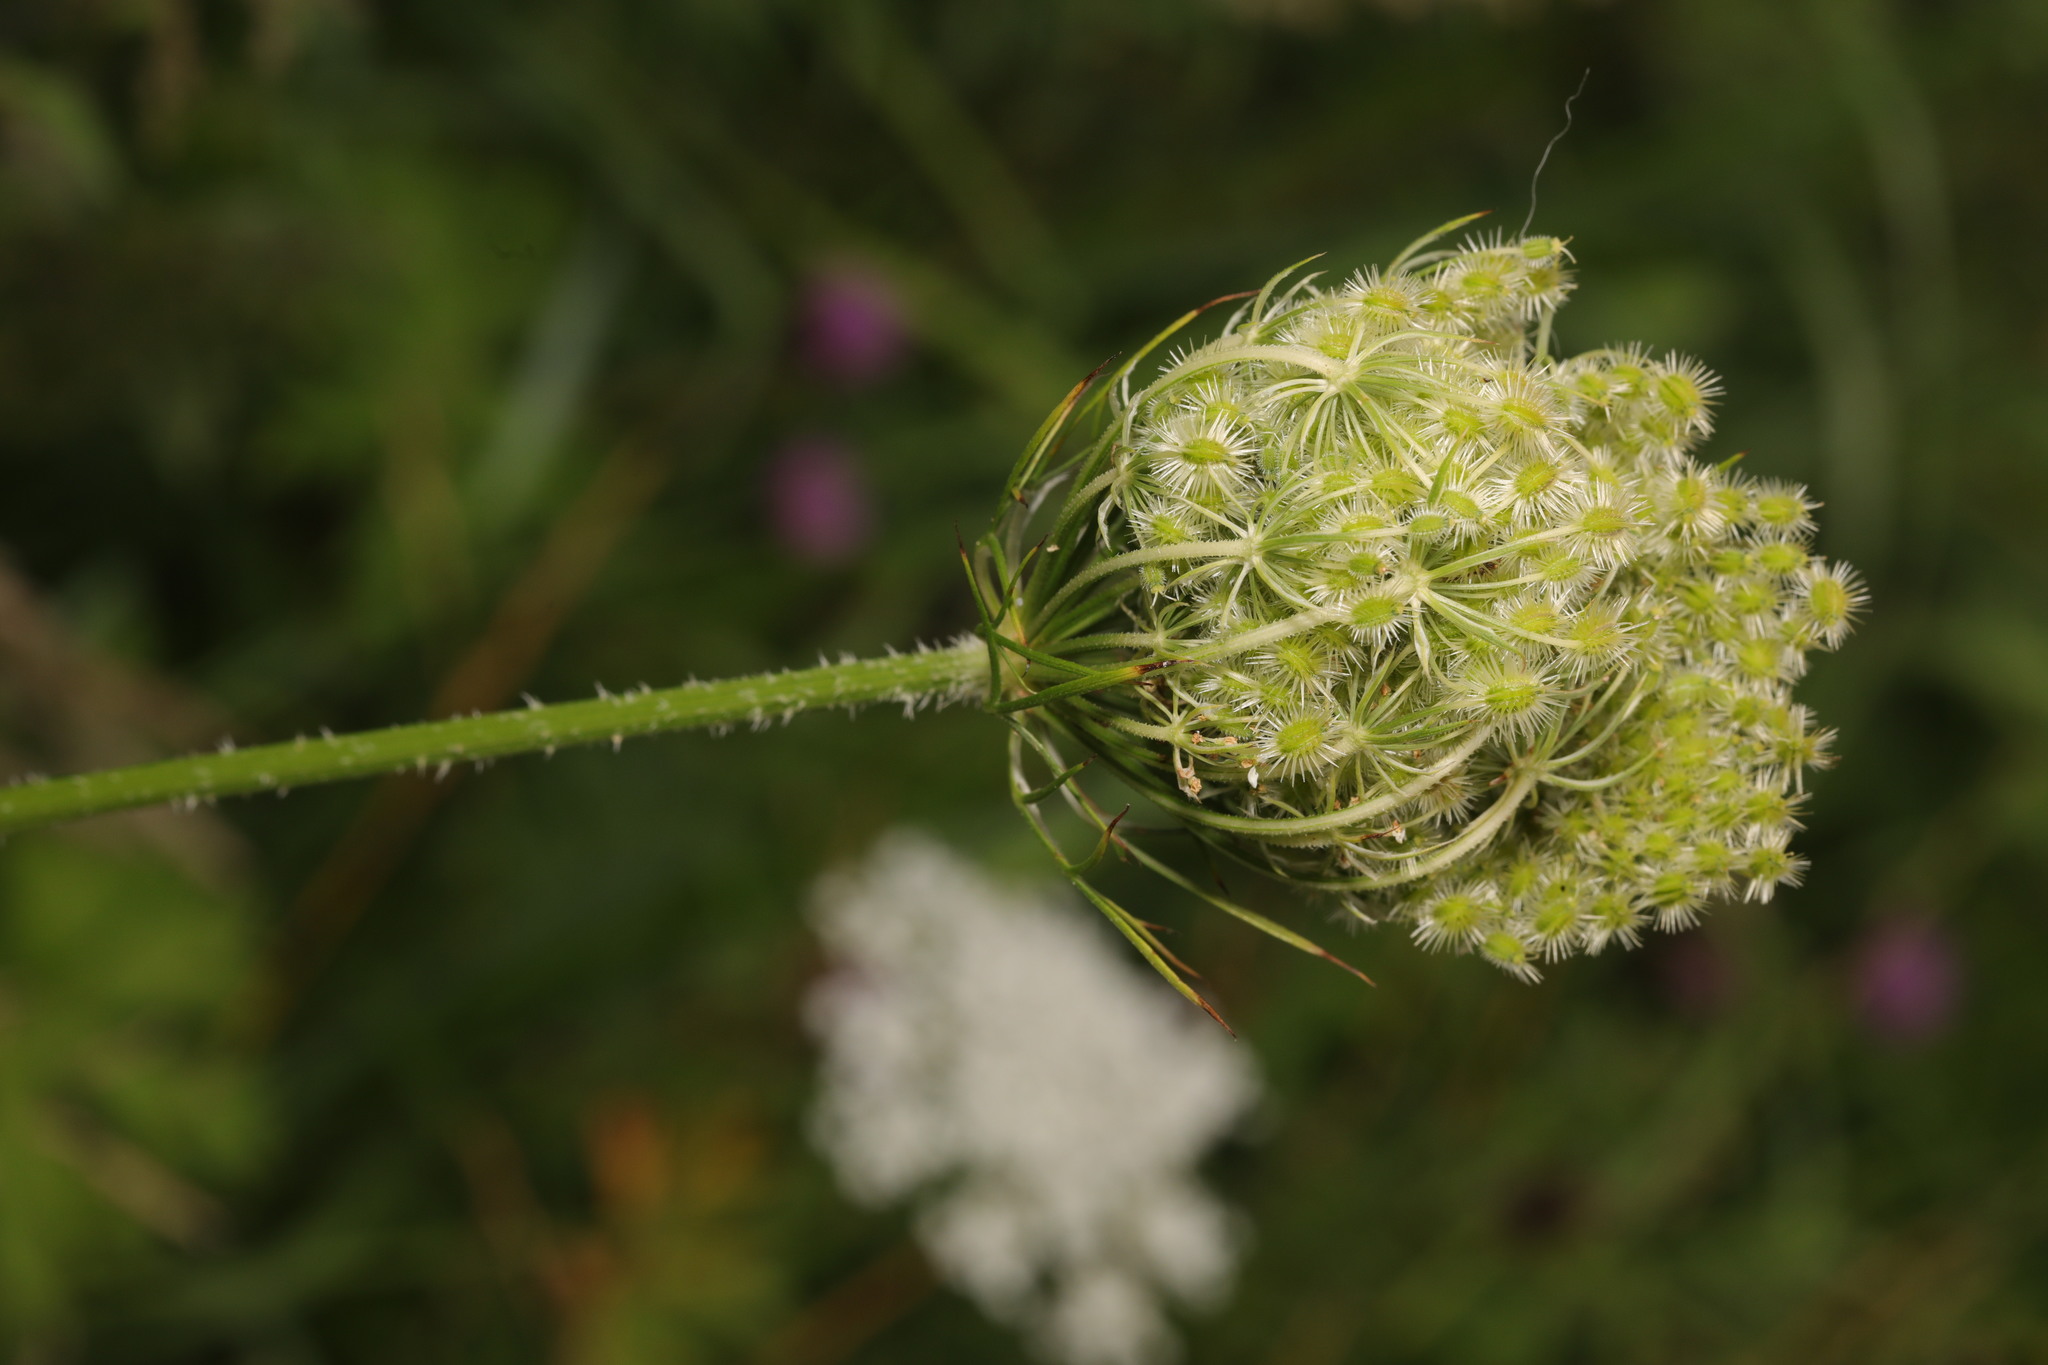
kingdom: Plantae
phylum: Tracheophyta
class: Magnoliopsida
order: Apiales
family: Apiaceae
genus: Daucus
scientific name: Daucus carota
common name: Wild carrot
